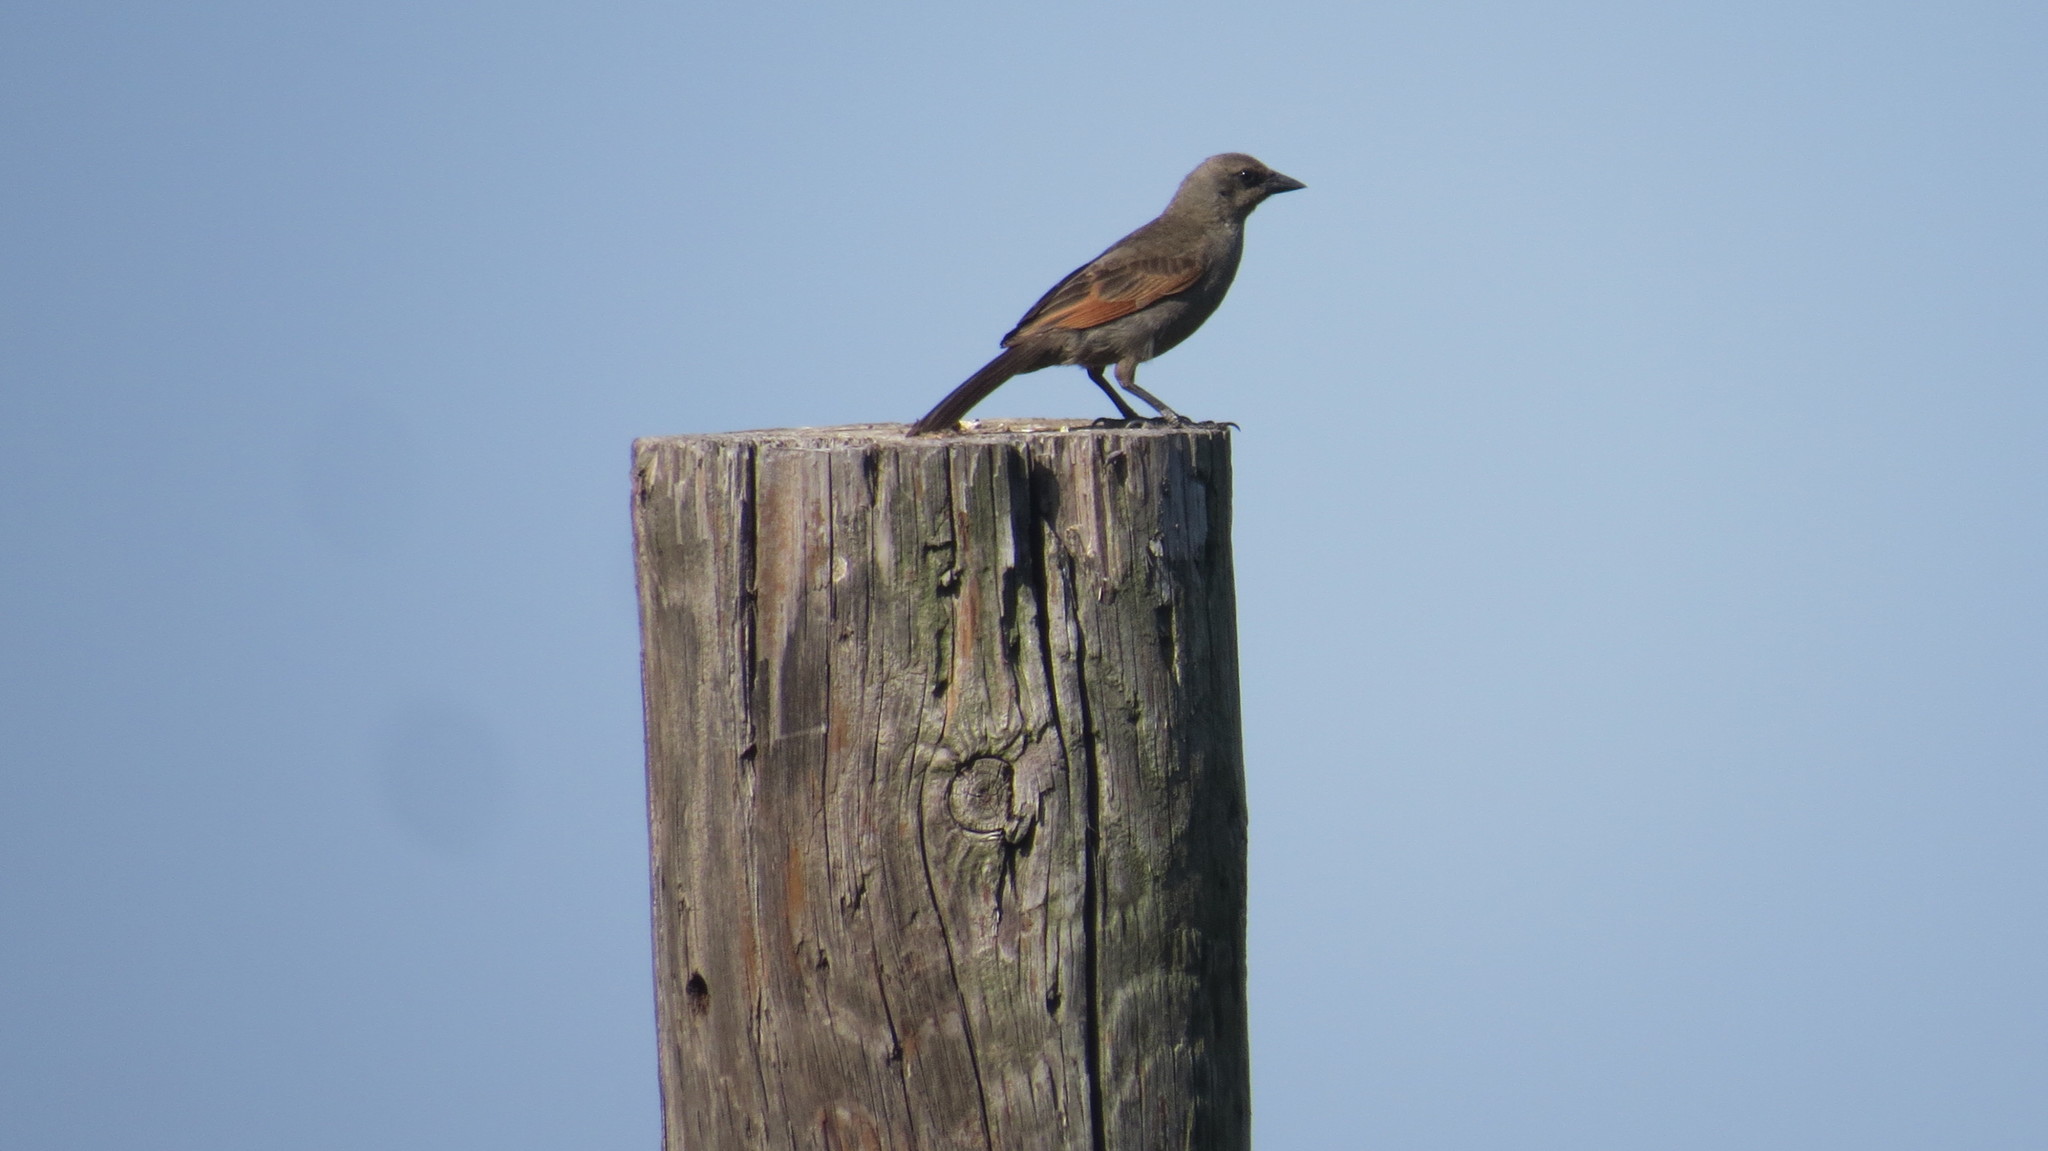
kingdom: Animalia
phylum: Chordata
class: Aves
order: Passeriformes
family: Icteridae
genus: Agelaioides
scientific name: Agelaioides badius
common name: Baywing
